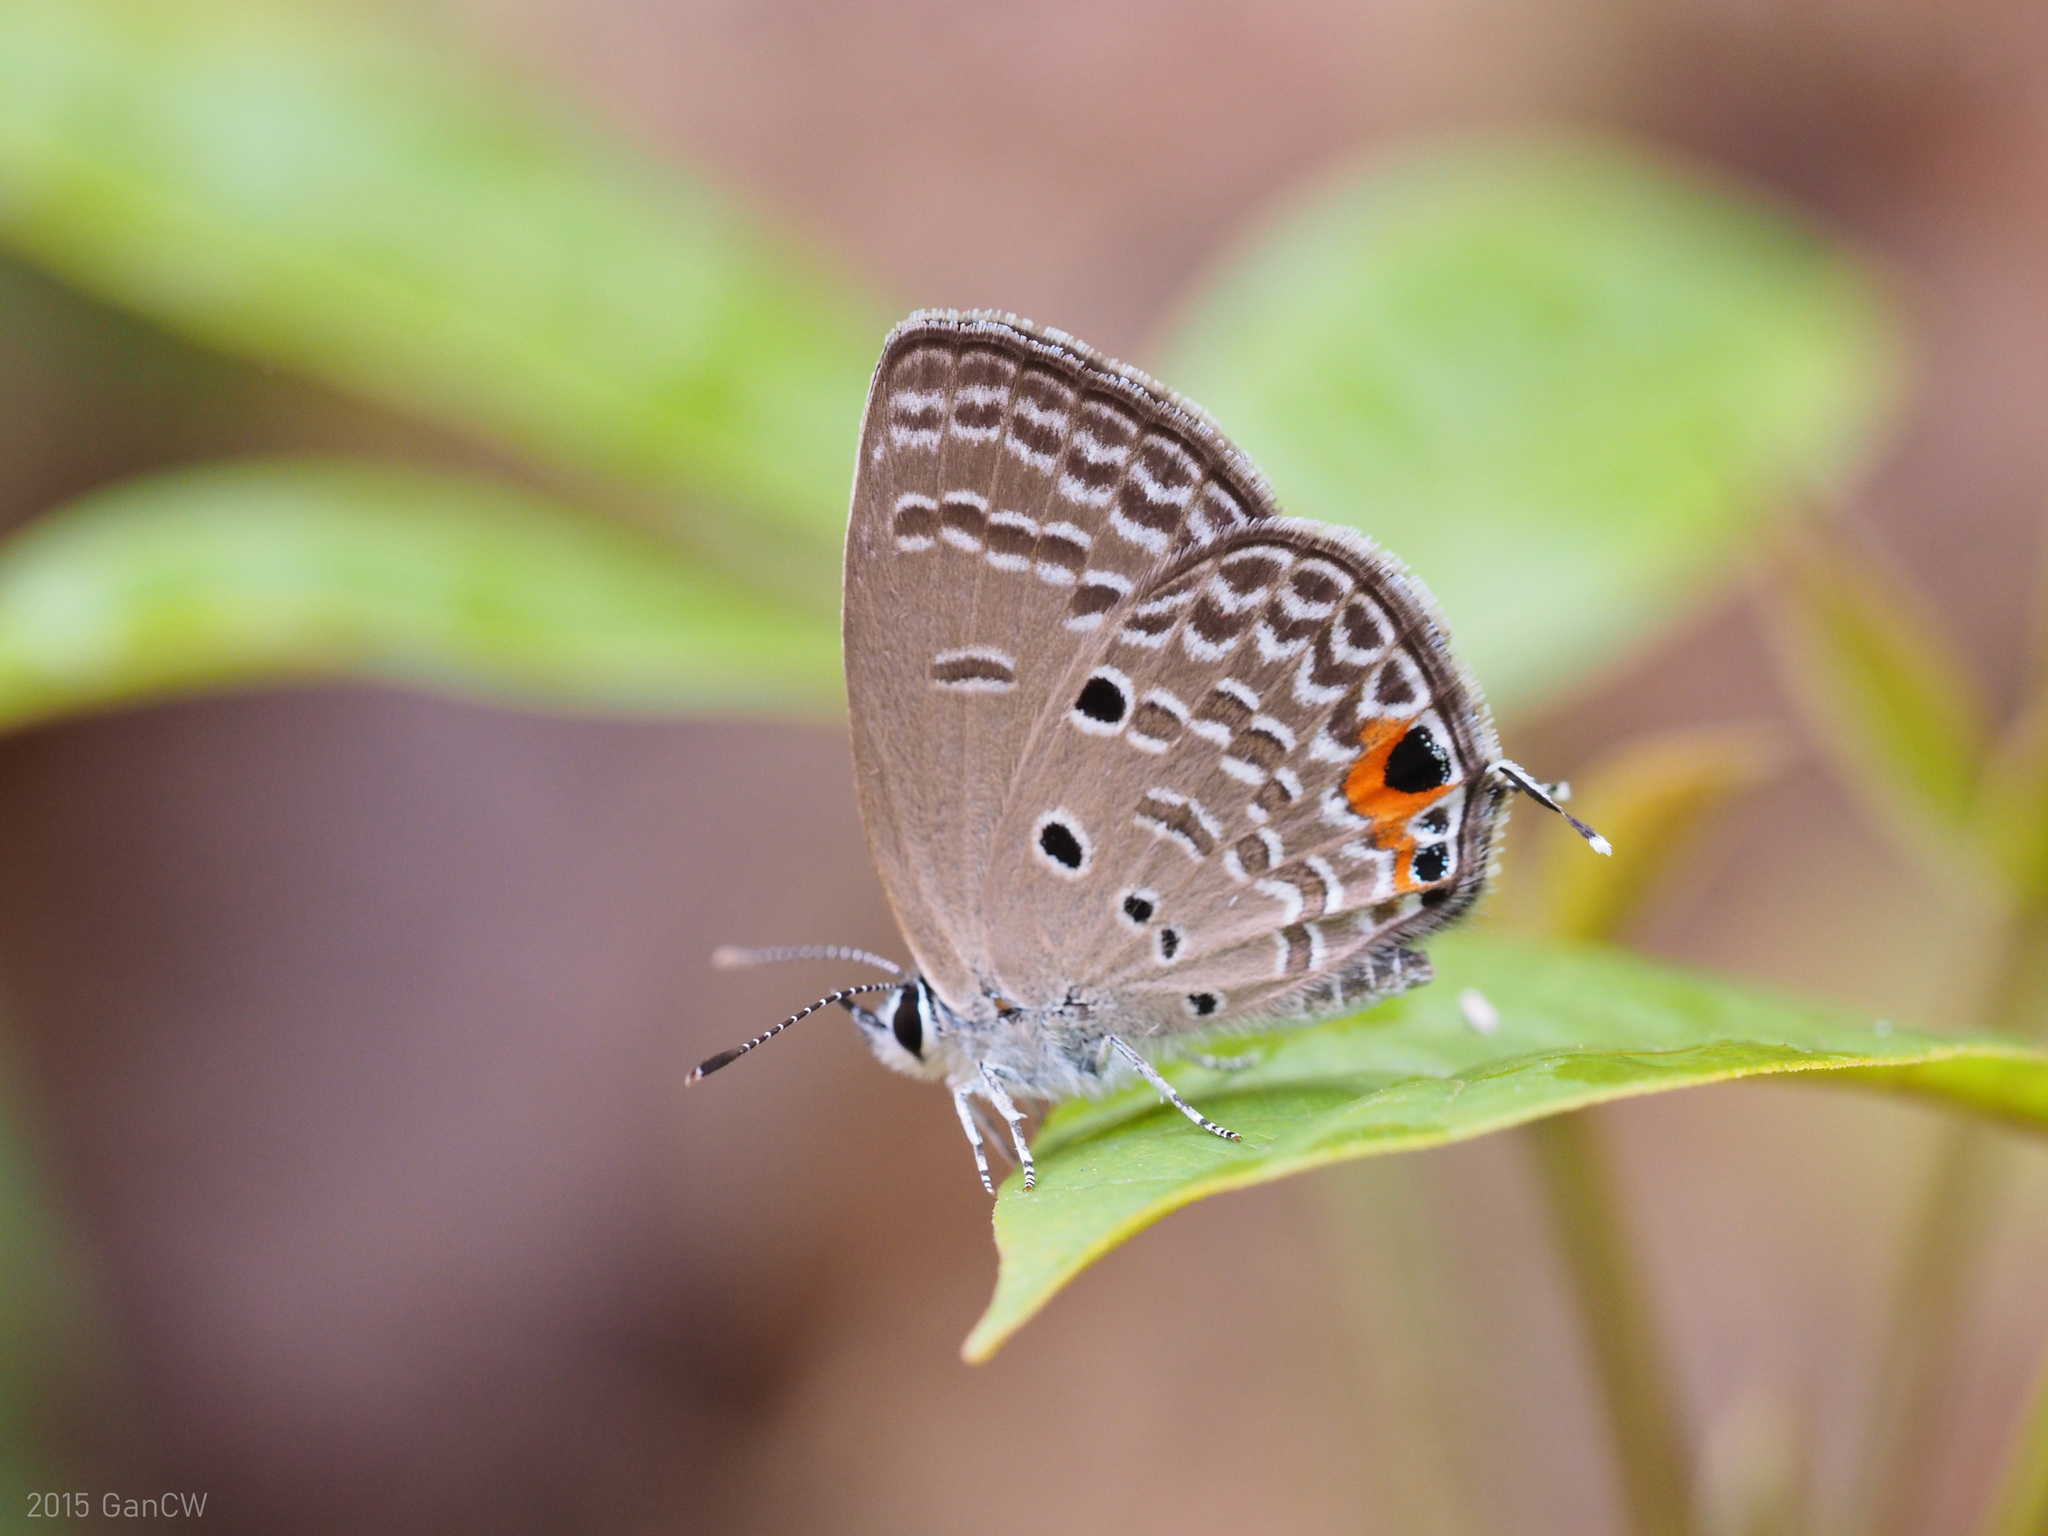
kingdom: Animalia
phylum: Arthropoda
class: Insecta
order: Lepidoptera
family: Lycaenidae
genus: Luthrodes
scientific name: Luthrodes pandava
